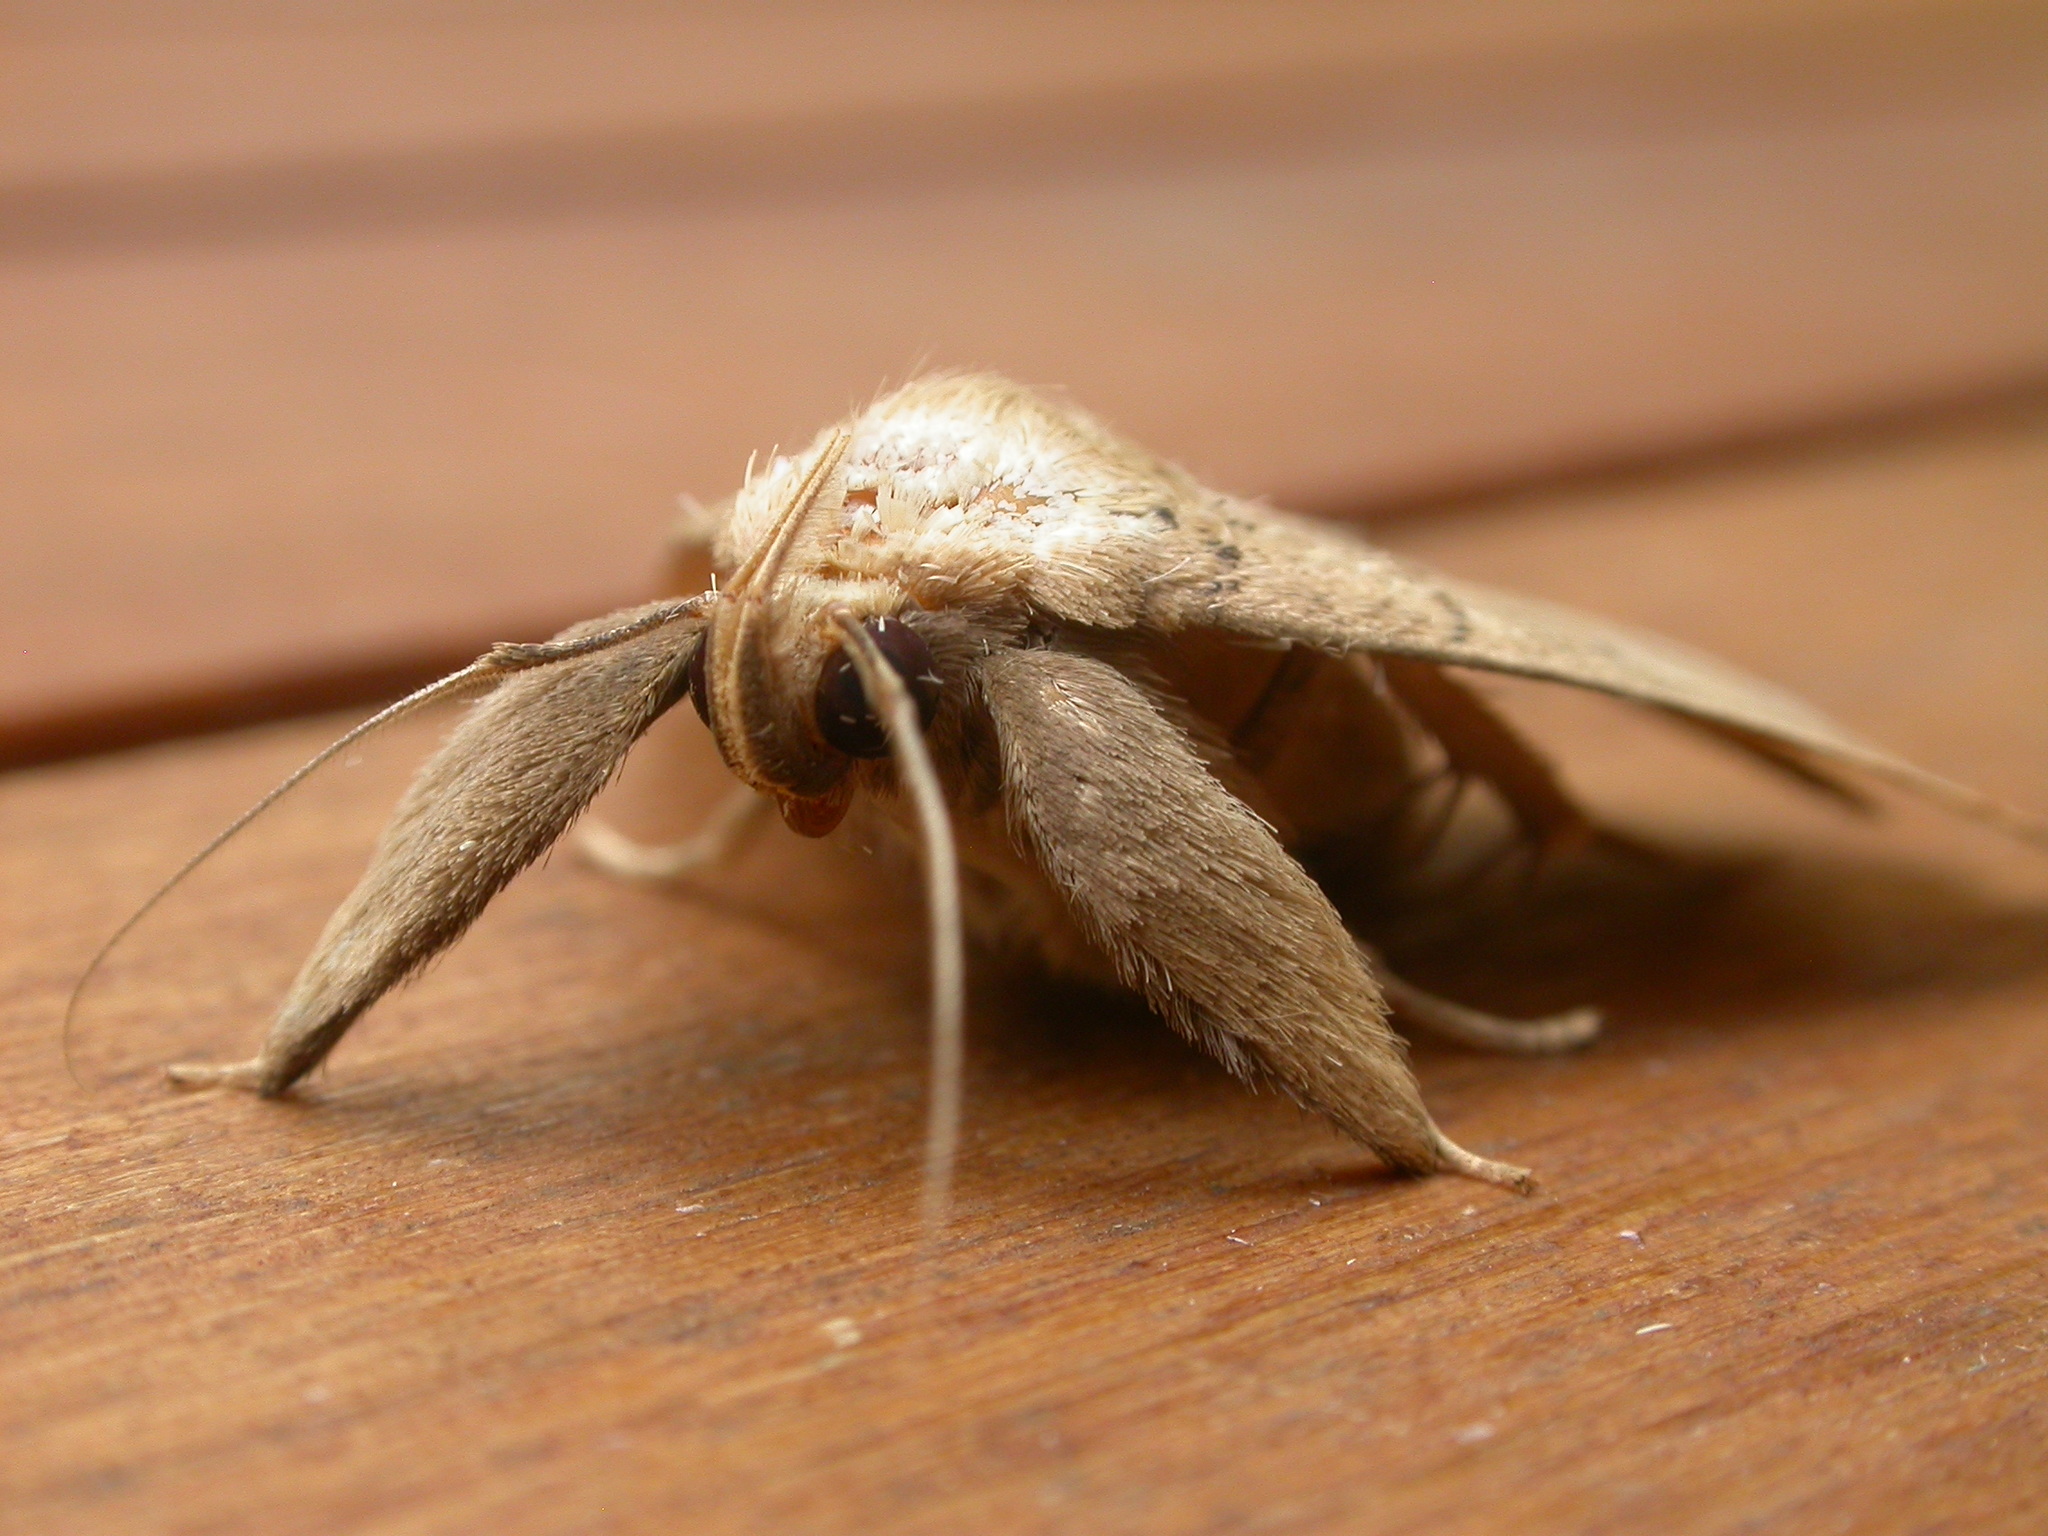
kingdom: Animalia
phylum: Arthropoda
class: Insecta
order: Lepidoptera
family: Erebidae
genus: Simplicia
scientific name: Simplicia erebina
